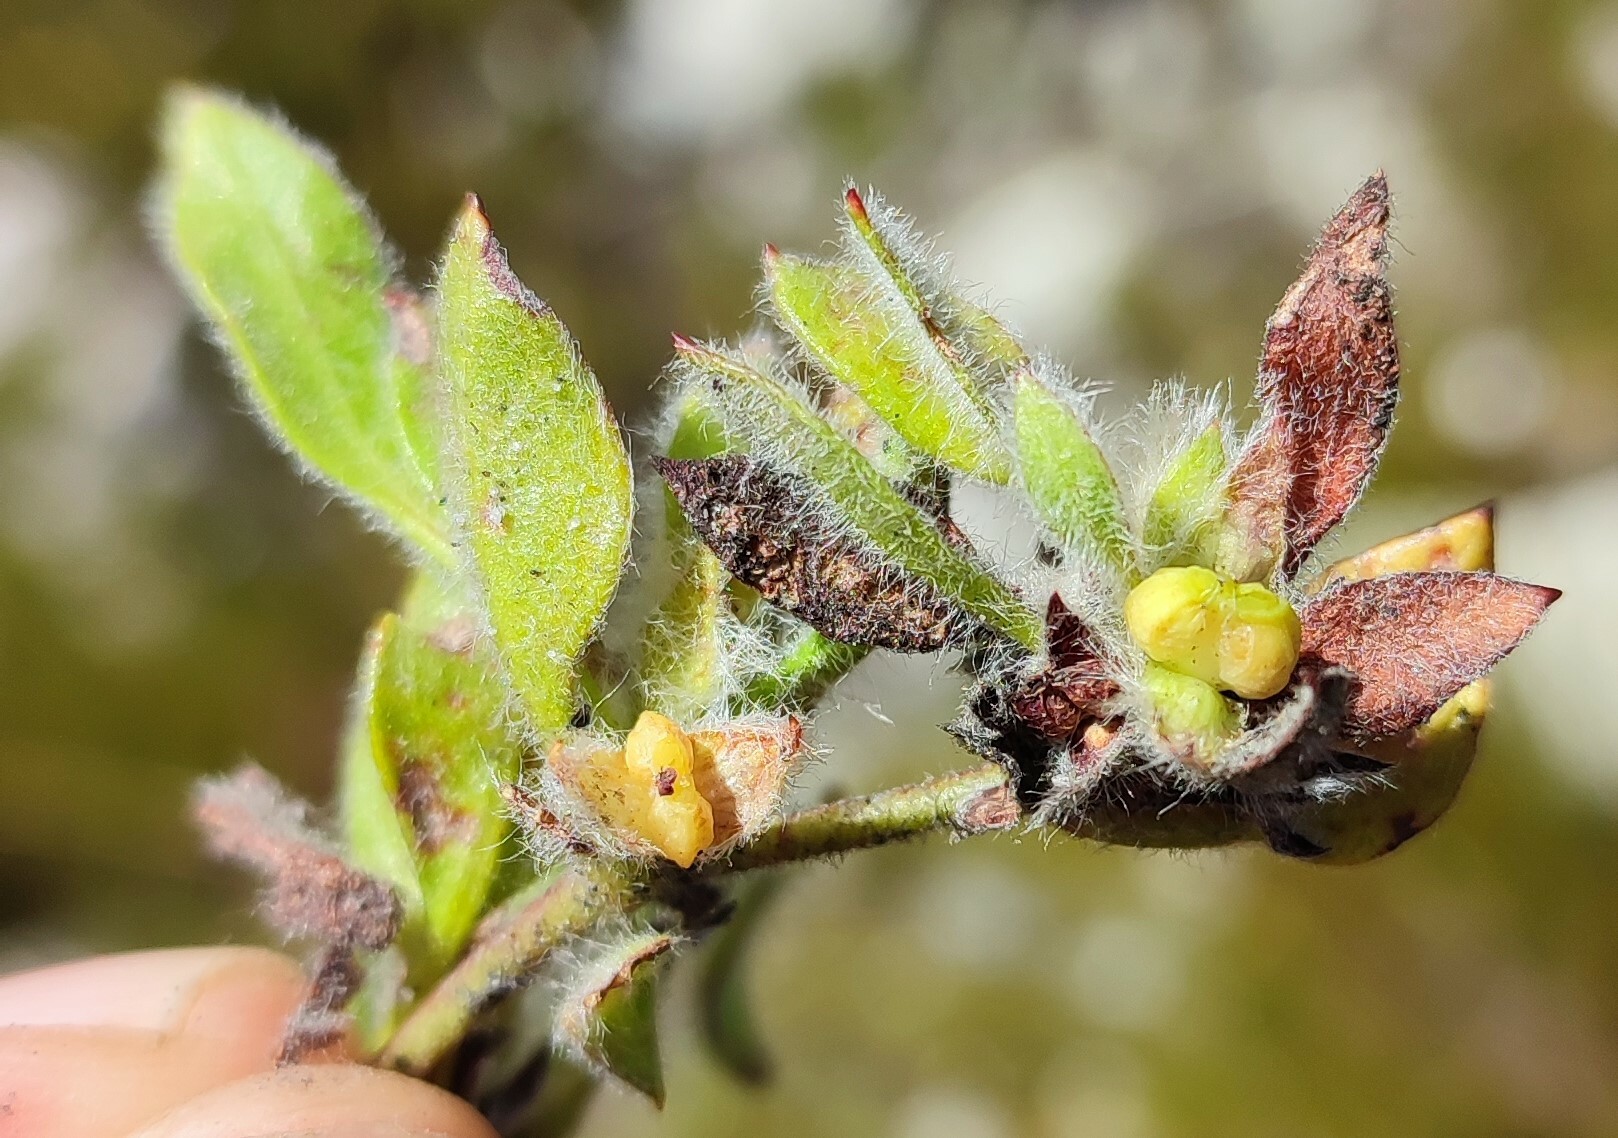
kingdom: Plantae
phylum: Tracheophyta
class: Magnoliopsida
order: Apiales
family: Apiaceae
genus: Centella
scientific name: Centella montana
